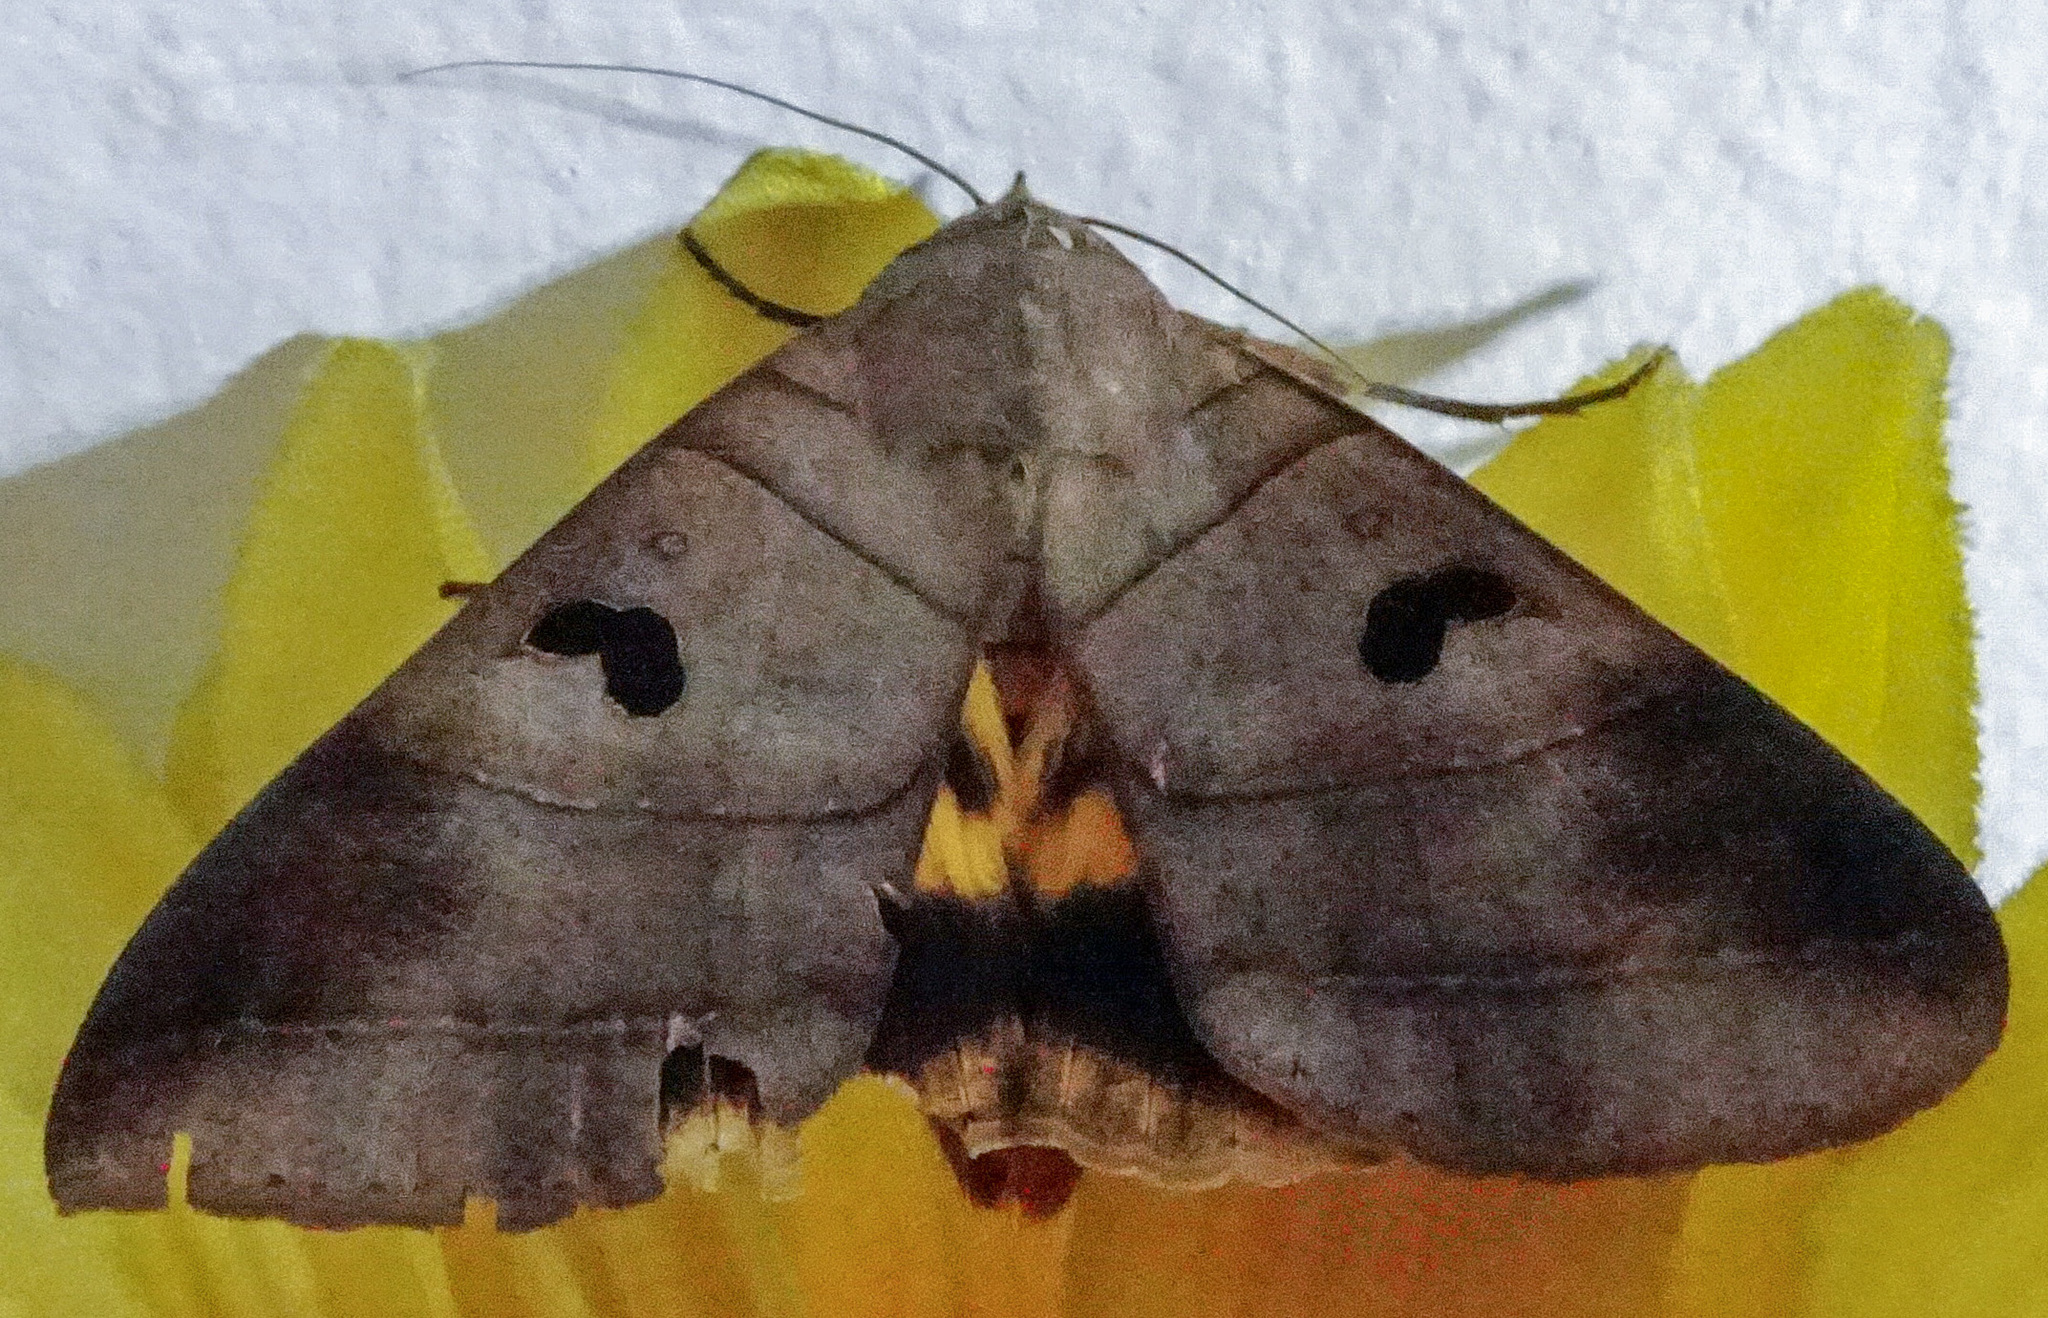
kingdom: Animalia
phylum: Arthropoda
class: Insecta
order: Lepidoptera
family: Erebidae
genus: Thyas
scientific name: Thyas coronata
